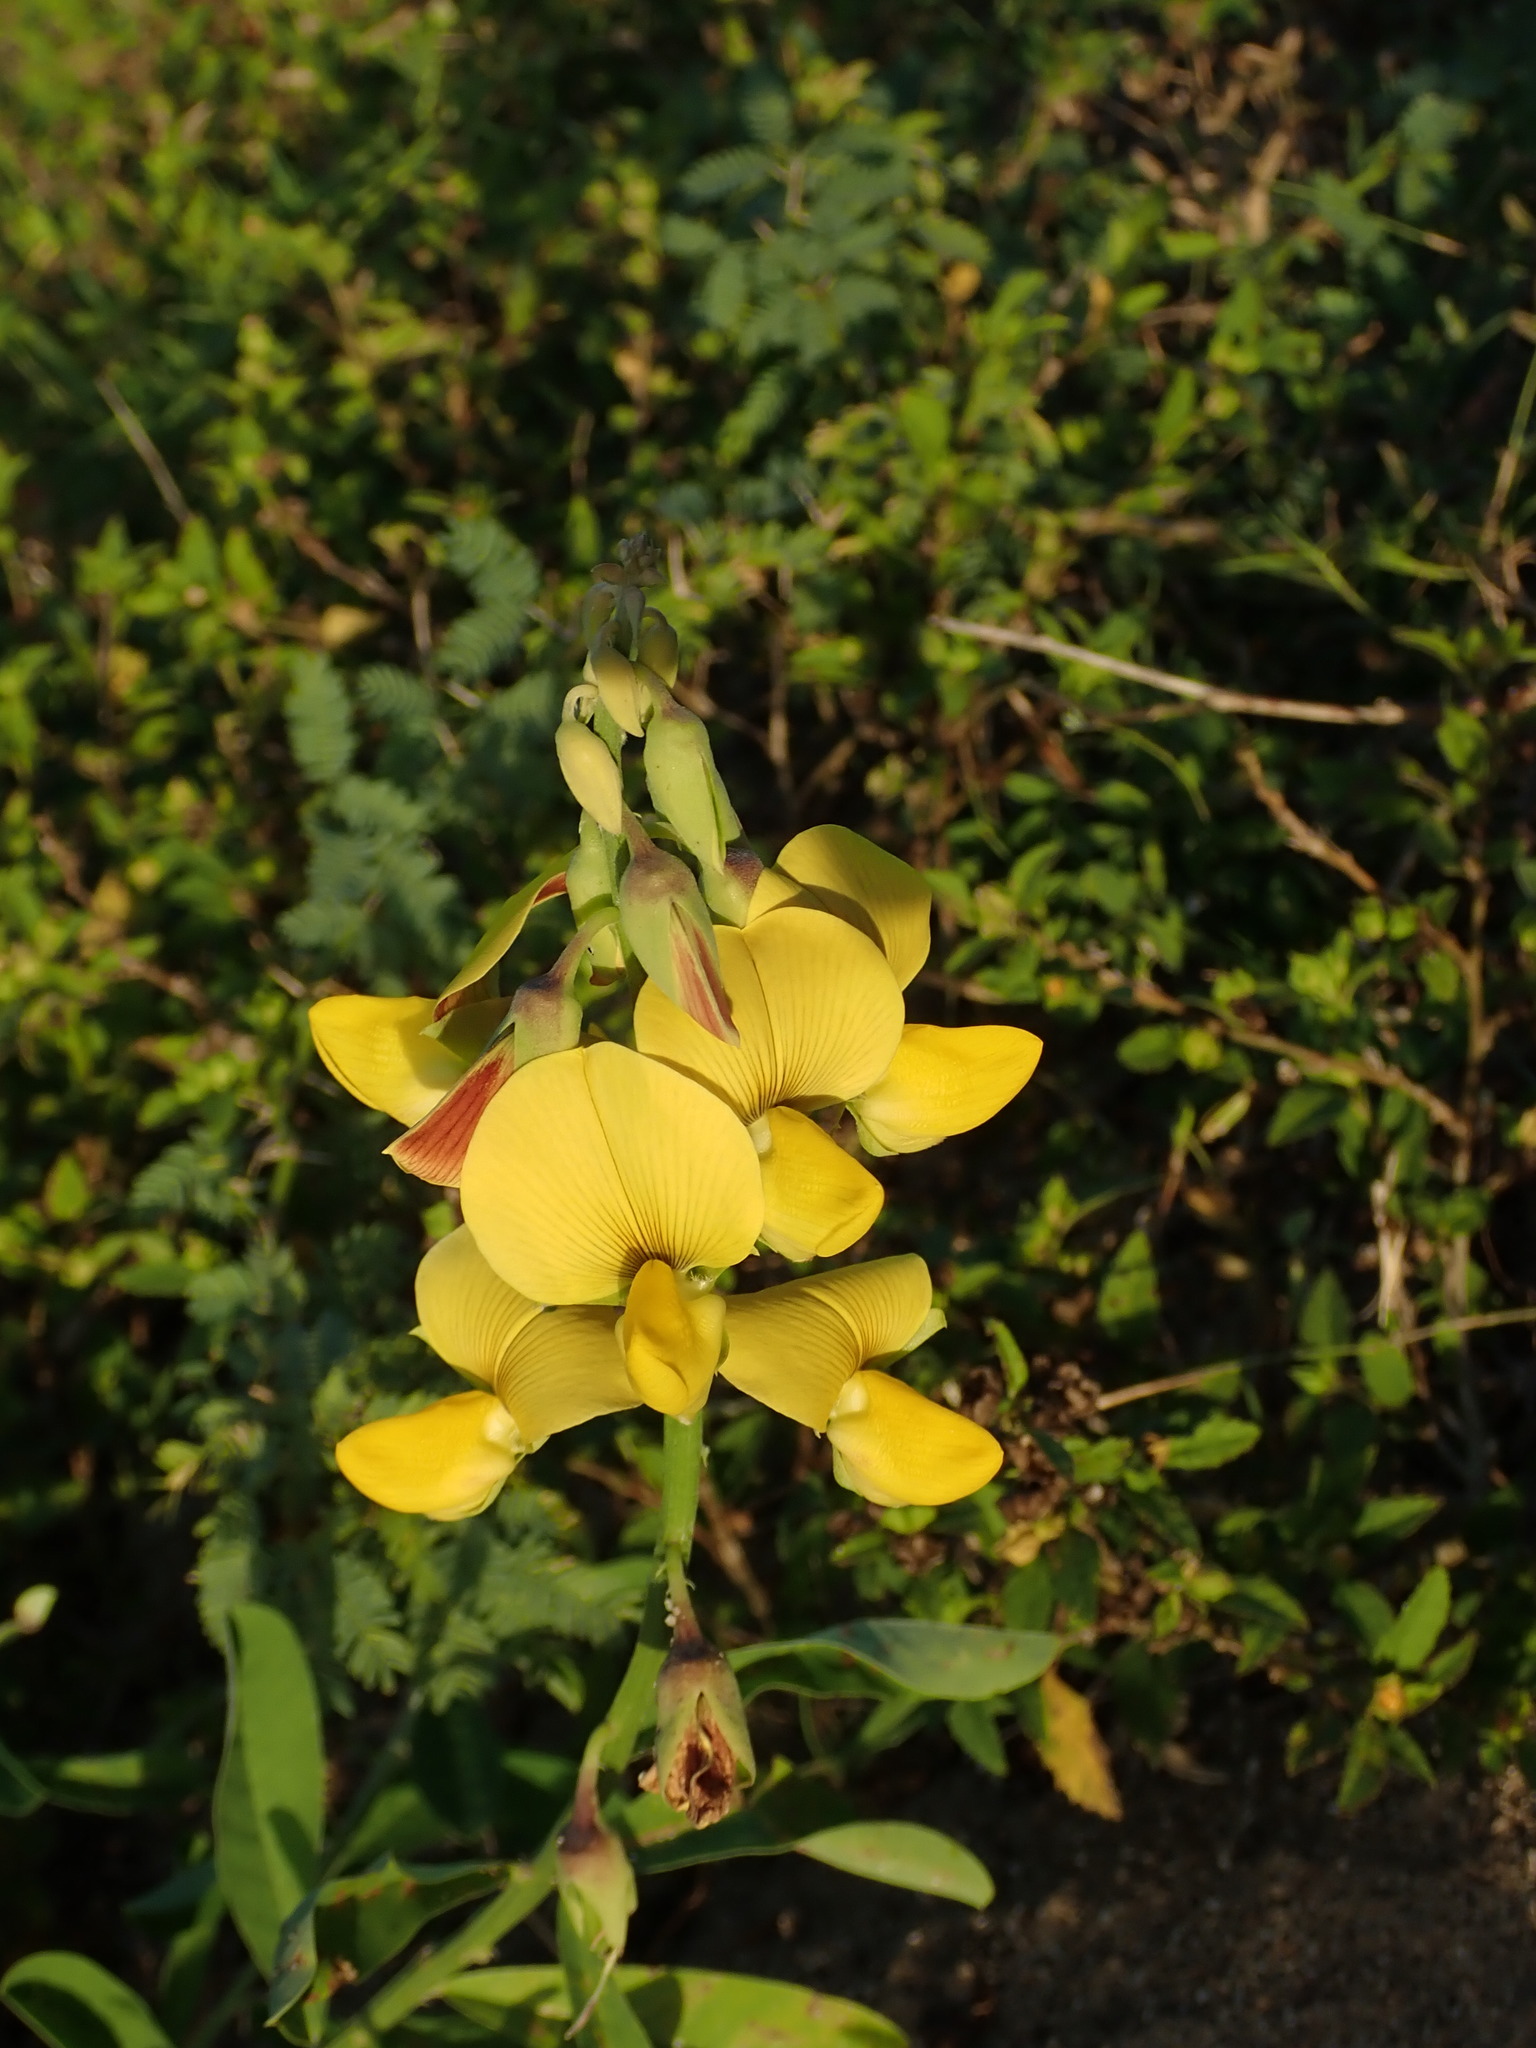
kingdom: Plantae
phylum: Tracheophyta
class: Magnoliopsida
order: Fabales
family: Fabaceae
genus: Crotalaria
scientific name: Crotalaria retusa
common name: Rattleweed
